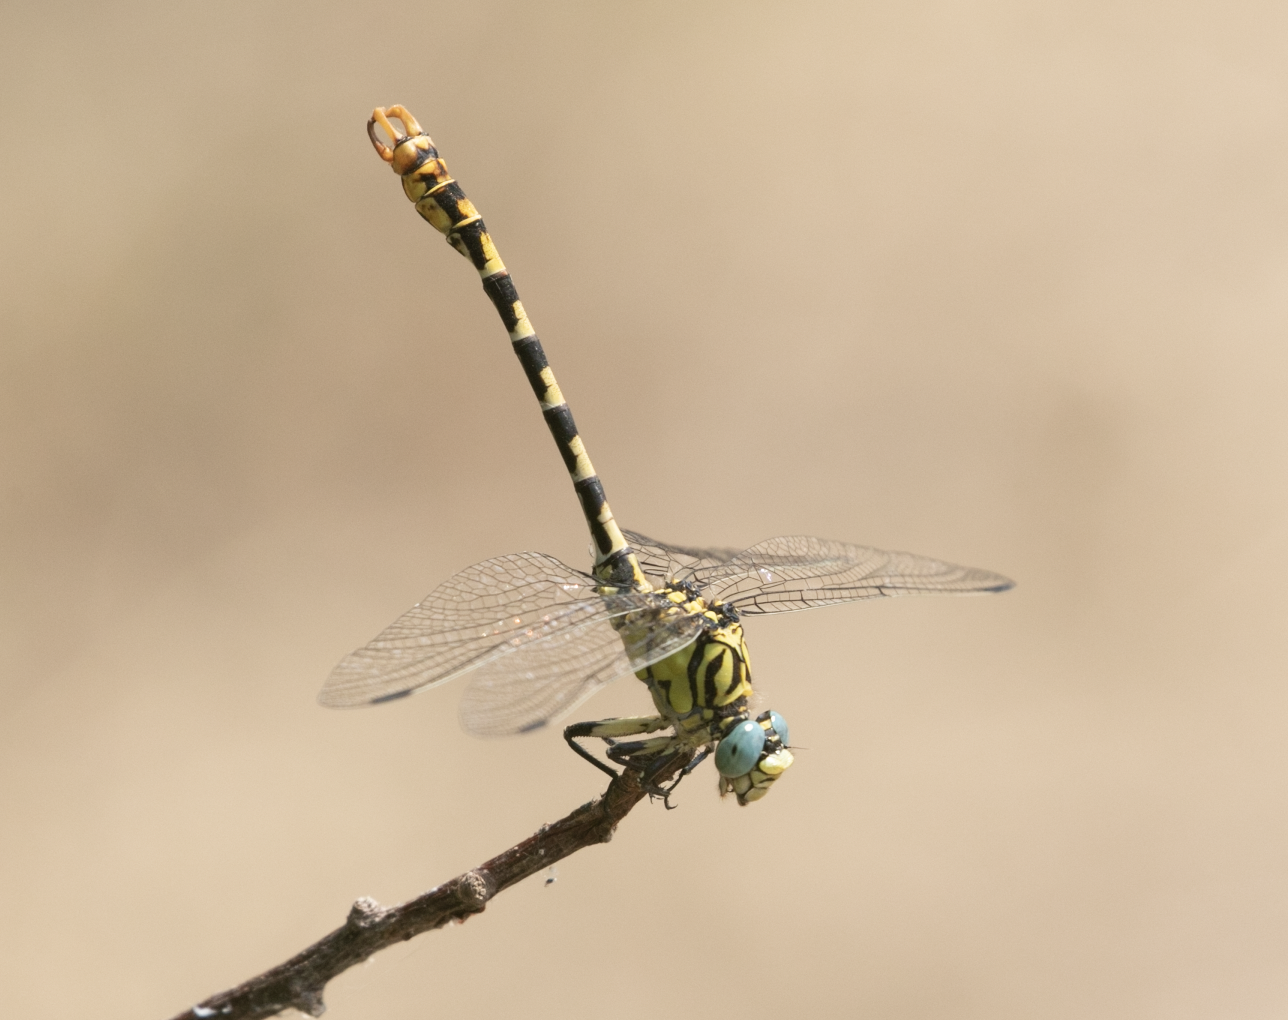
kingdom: Animalia
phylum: Arthropoda
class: Insecta
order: Odonata
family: Gomphidae
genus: Onychogomphus
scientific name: Onychogomphus forcipatus
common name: Small pincertail
